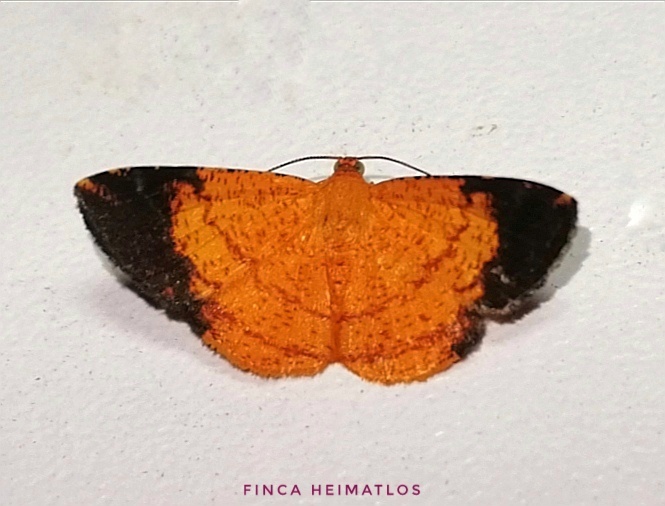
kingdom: Animalia
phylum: Arthropoda
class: Insecta
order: Lepidoptera
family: Geometridae
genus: Pyrinia
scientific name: Pyrinia nigrapicalis
